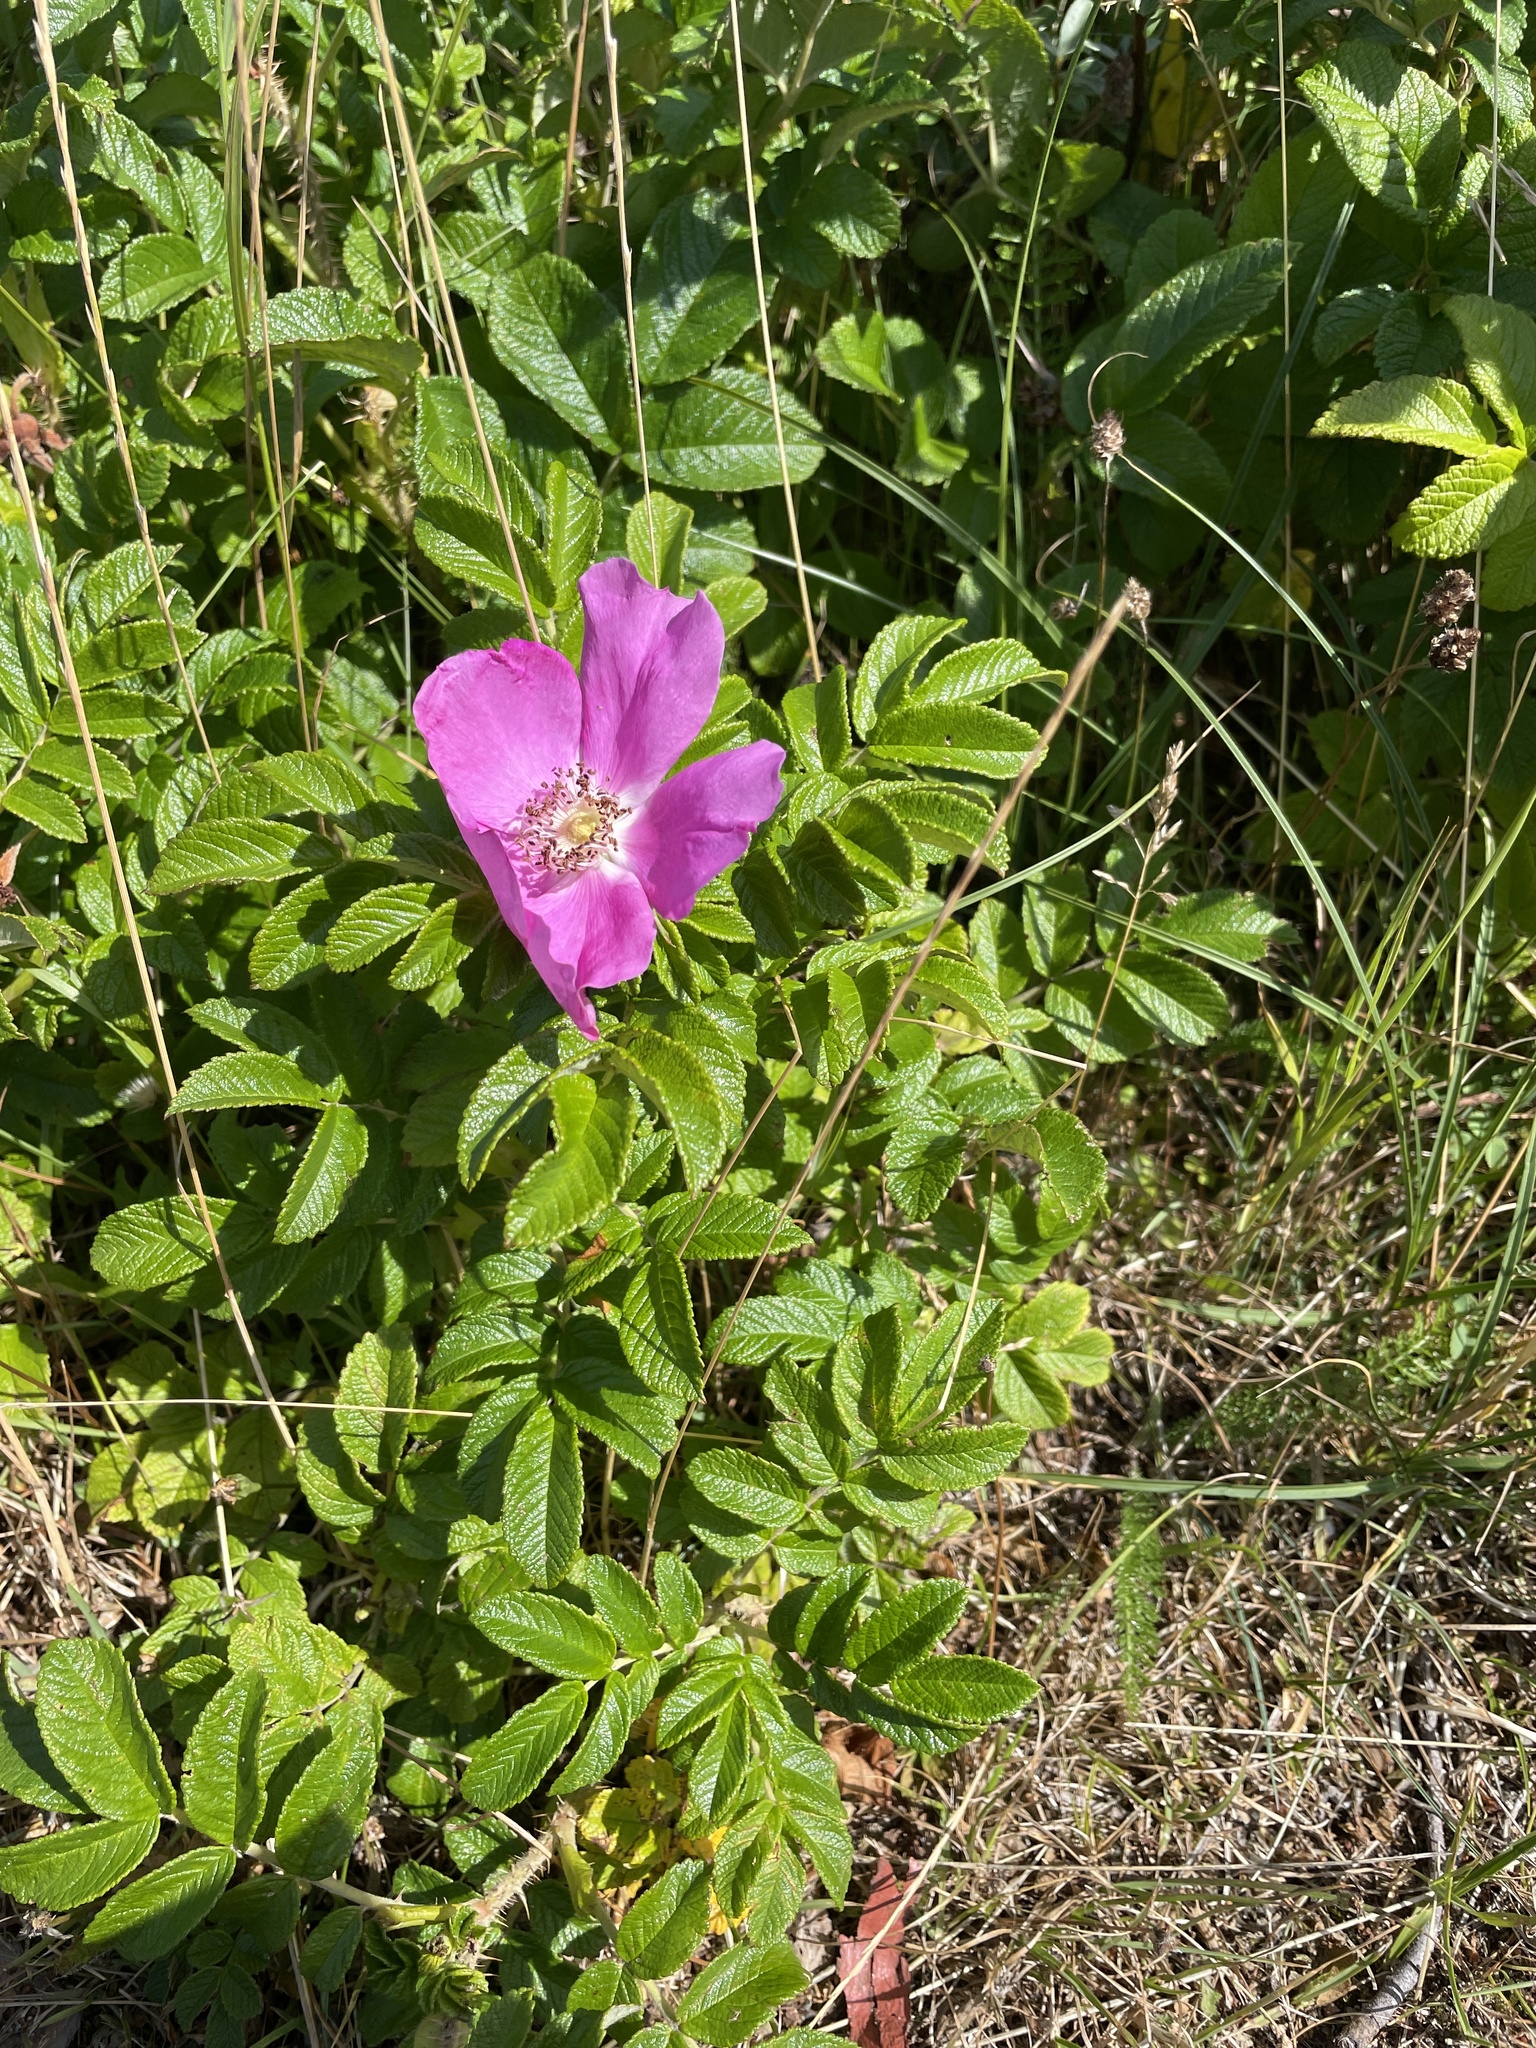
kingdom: Plantae
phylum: Tracheophyta
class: Magnoliopsida
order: Rosales
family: Rosaceae
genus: Rosa
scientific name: Rosa rugosa
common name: Japanese rose
